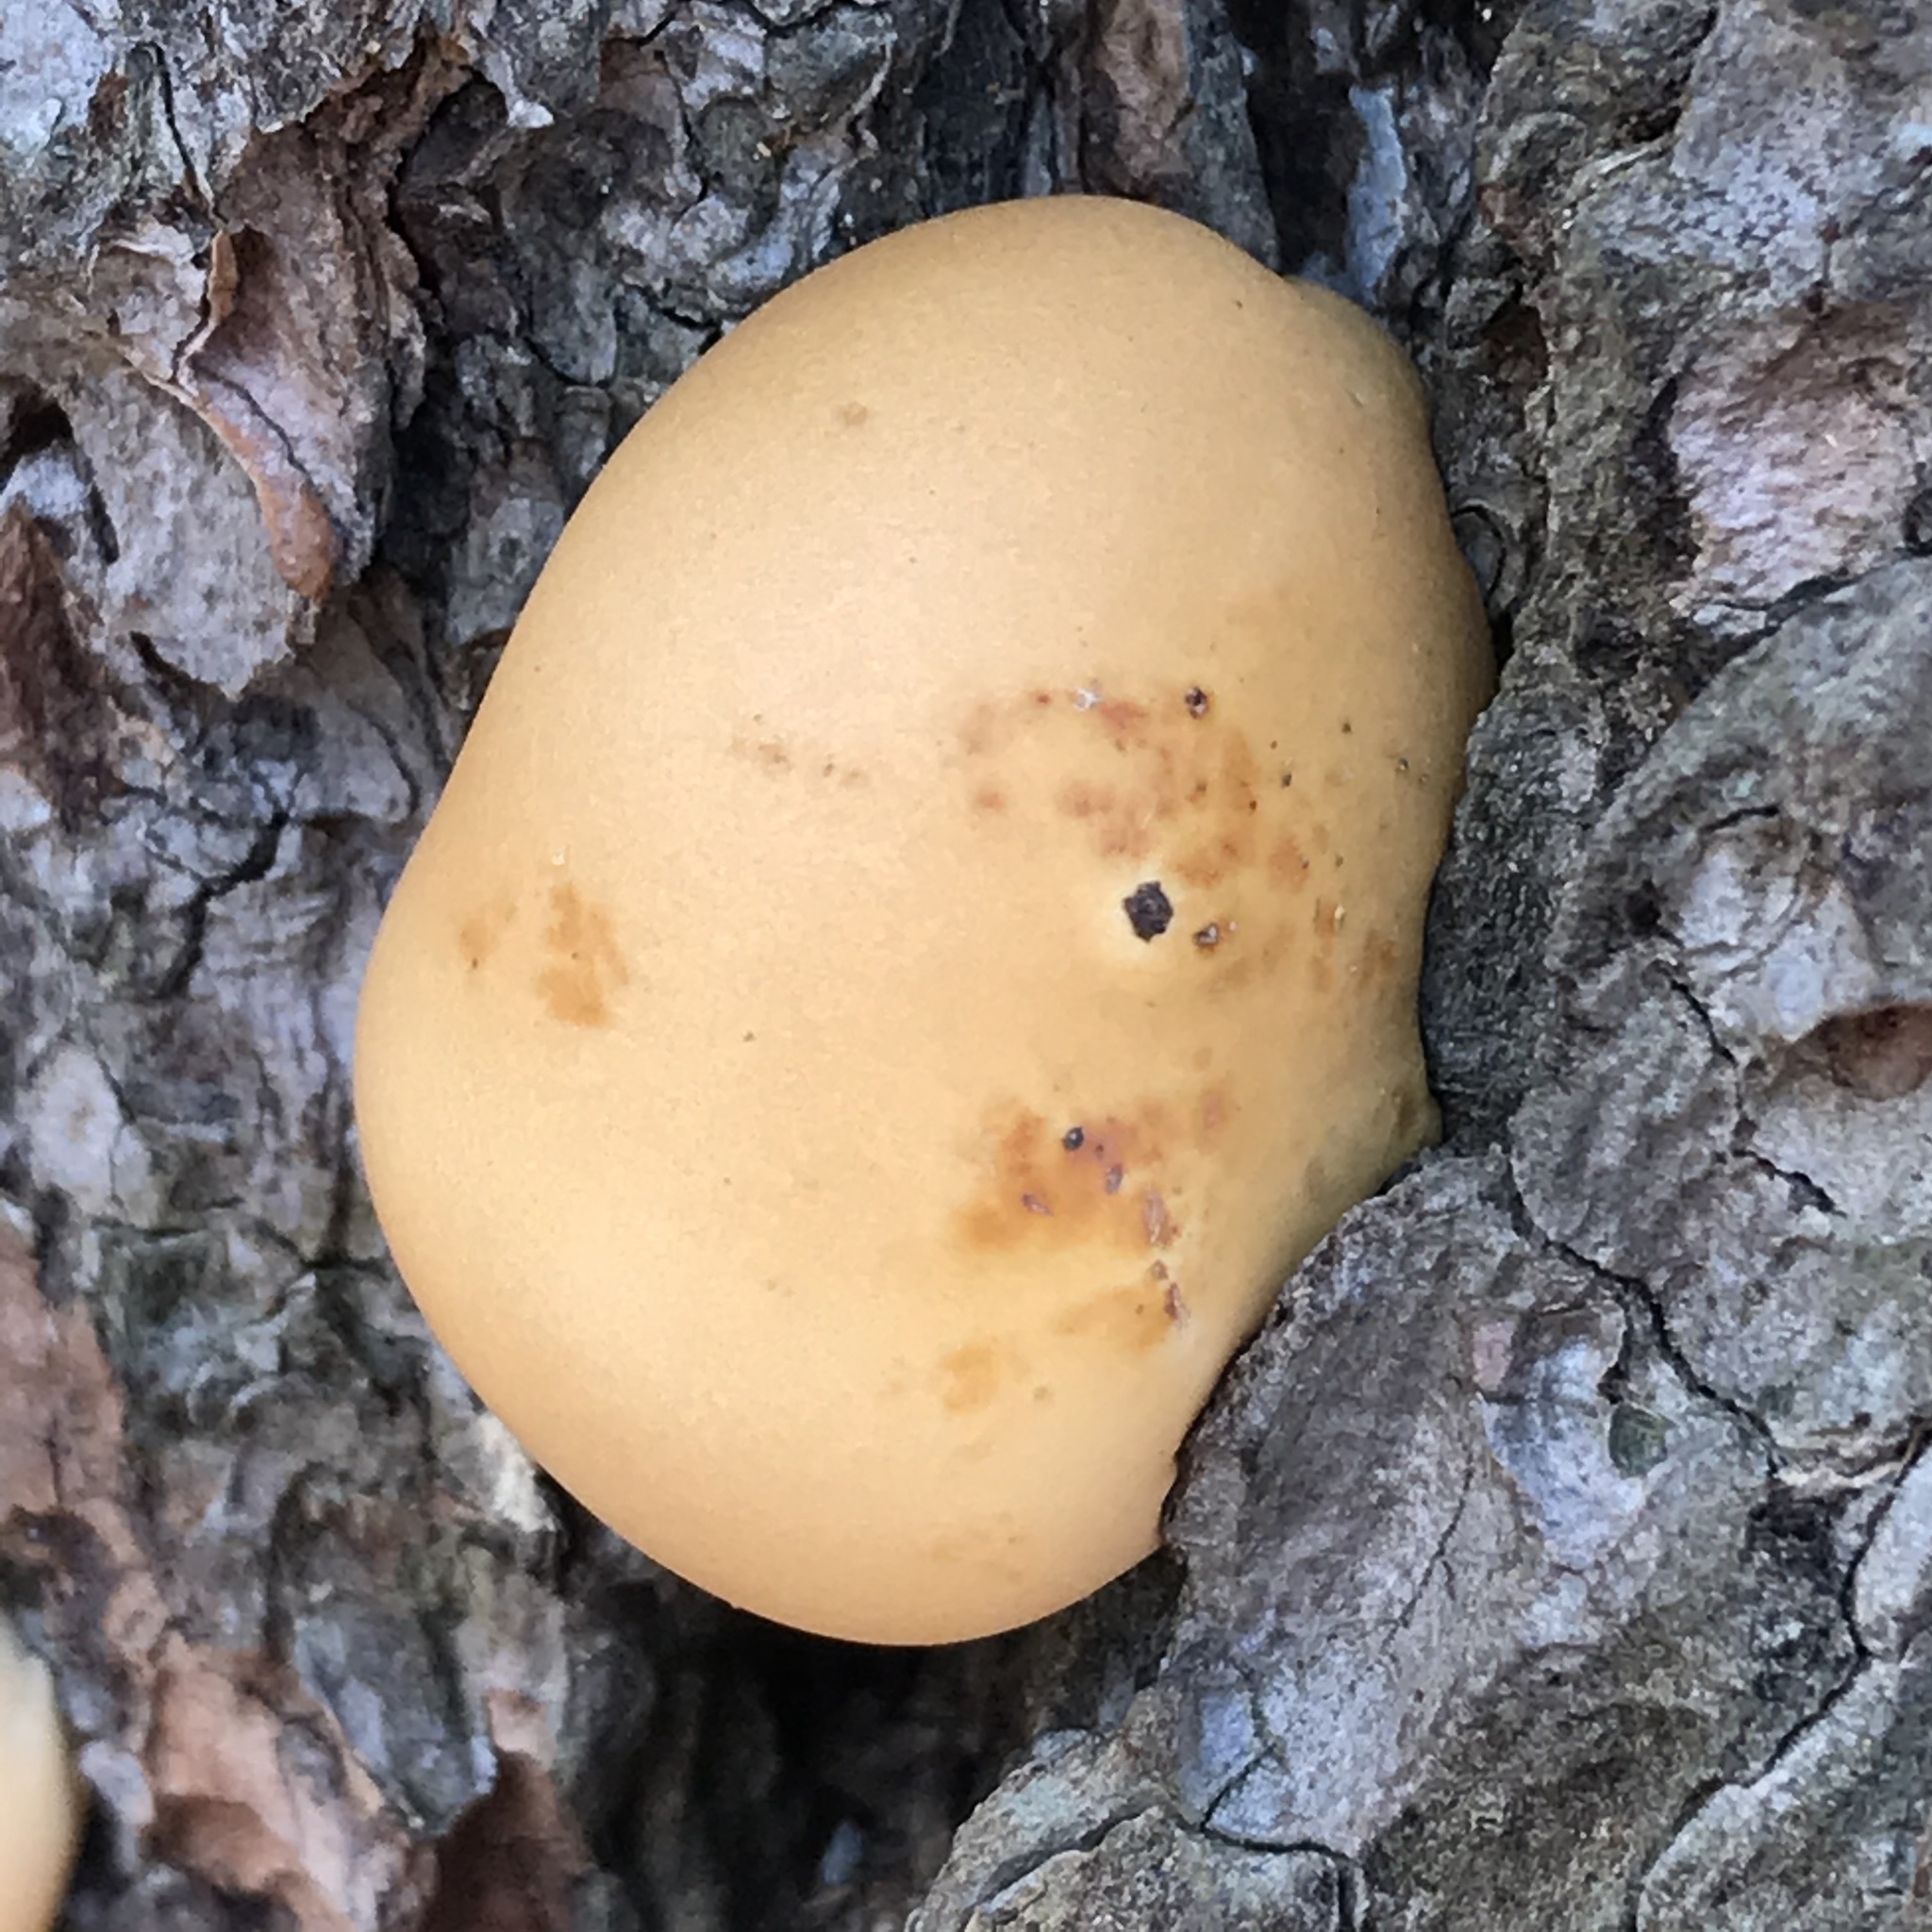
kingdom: Fungi
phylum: Basidiomycota
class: Agaricomycetes
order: Polyporales
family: Polyporaceae
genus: Cryptoporus
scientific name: Cryptoporus volvatus
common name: Veiled polypore
